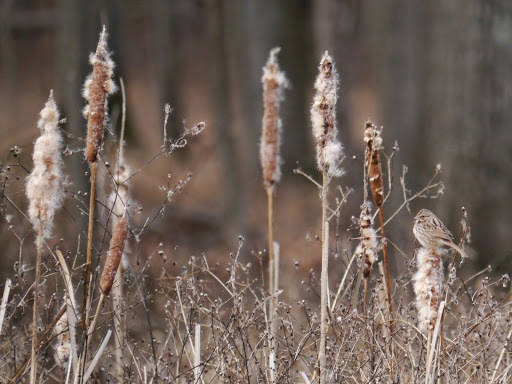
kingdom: Animalia
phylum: Chordata
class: Aves
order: Passeriformes
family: Passerellidae
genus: Melospiza
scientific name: Melospiza melodia
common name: Song sparrow
